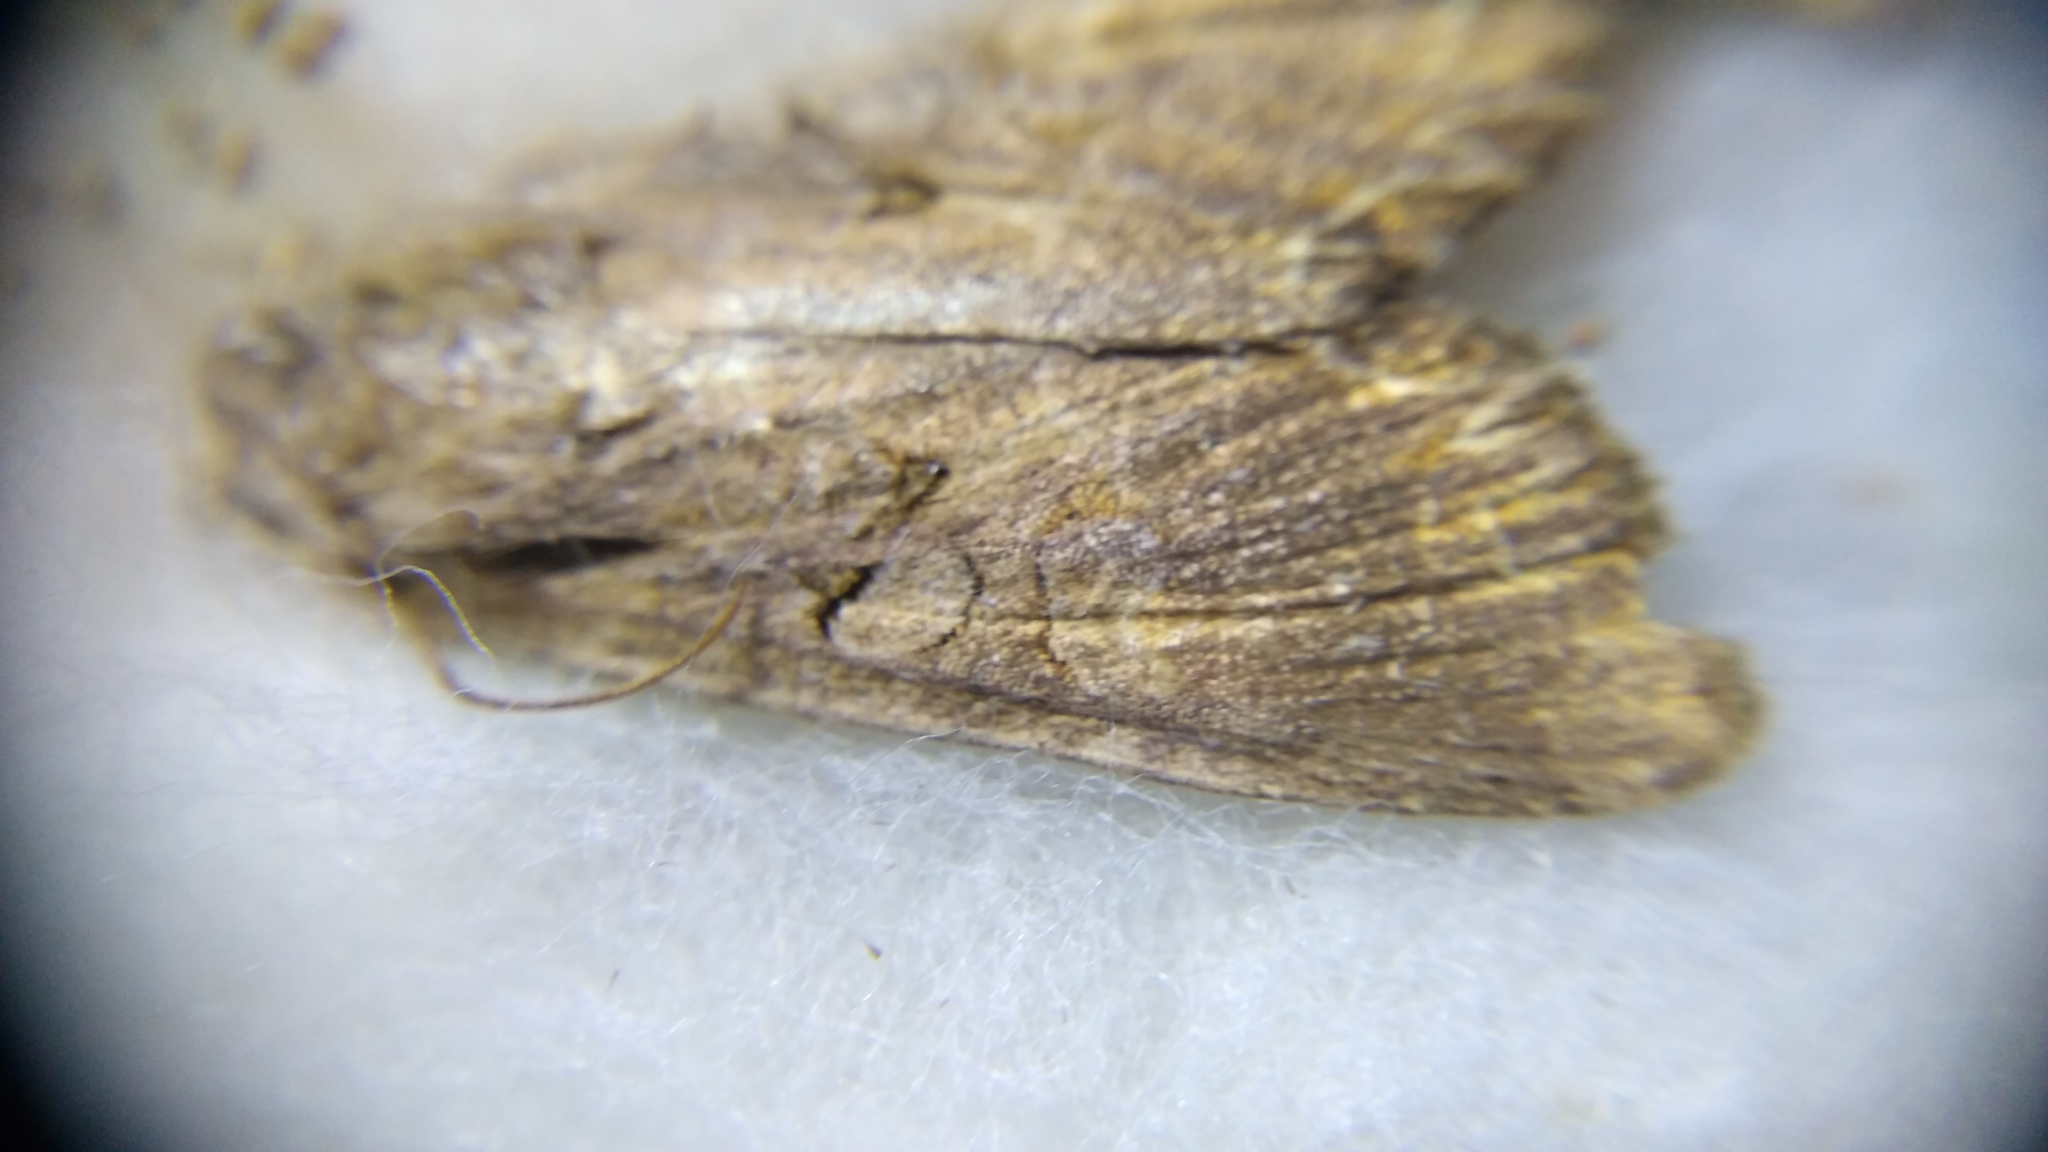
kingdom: Animalia
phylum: Arthropoda
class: Insecta
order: Lepidoptera
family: Noctuidae
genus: Lacanobia
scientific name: Lacanobia suasa
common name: Dog's tooth
